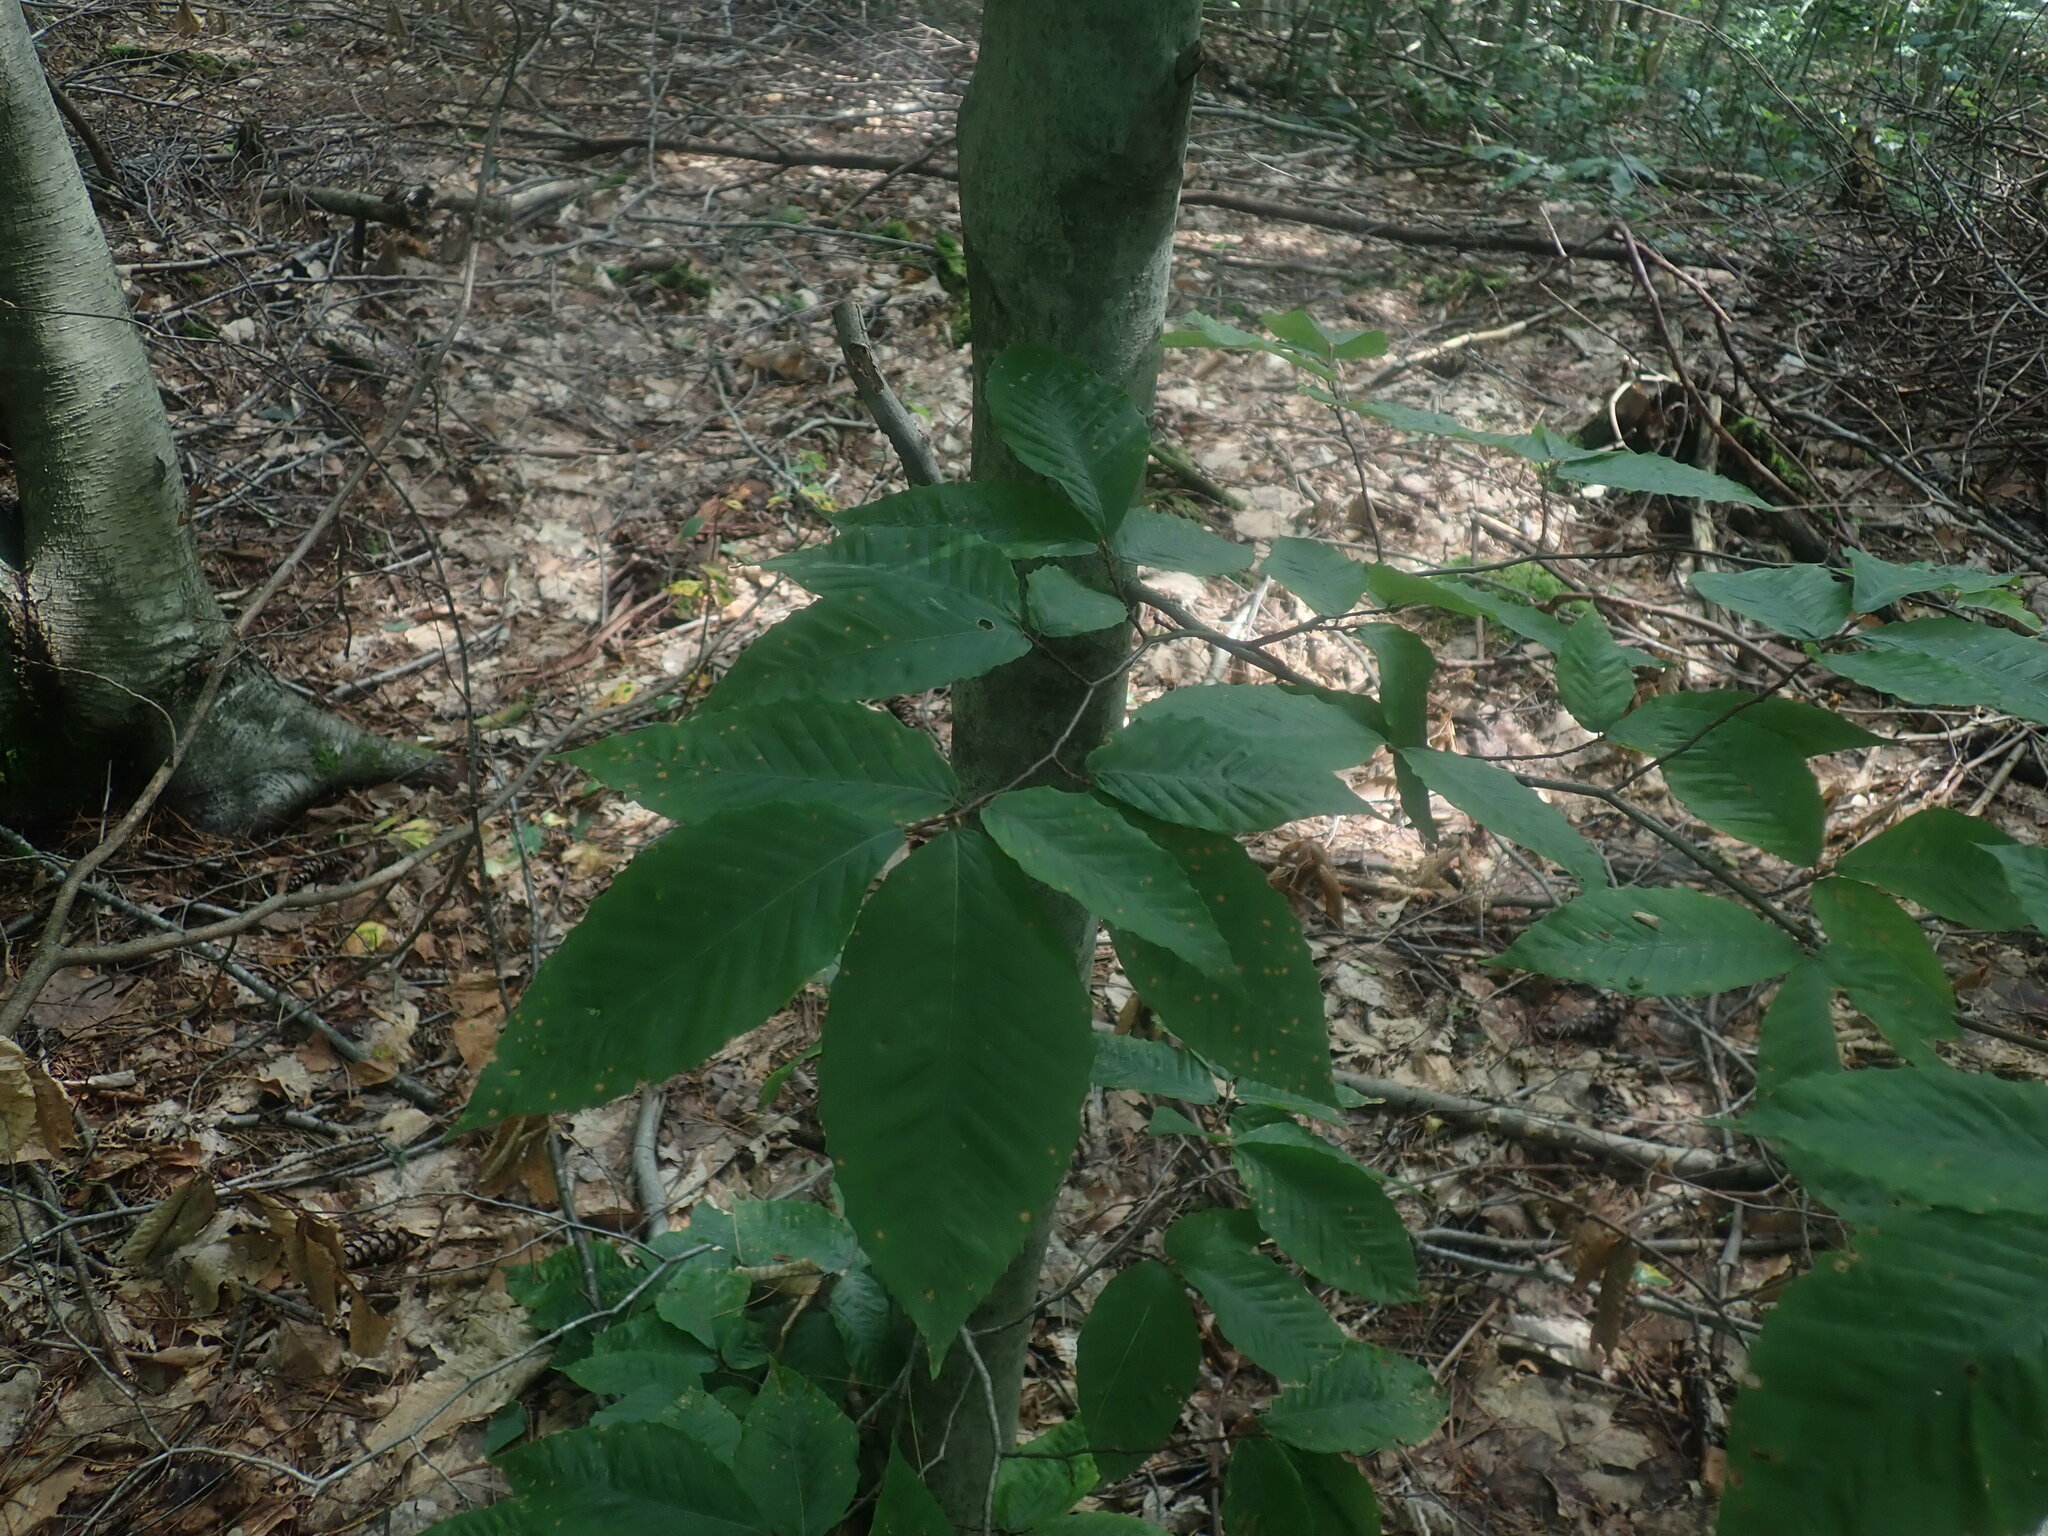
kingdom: Plantae
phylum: Tracheophyta
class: Magnoliopsida
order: Fagales
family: Fagaceae
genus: Fagus
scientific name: Fagus grandifolia
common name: American beech
